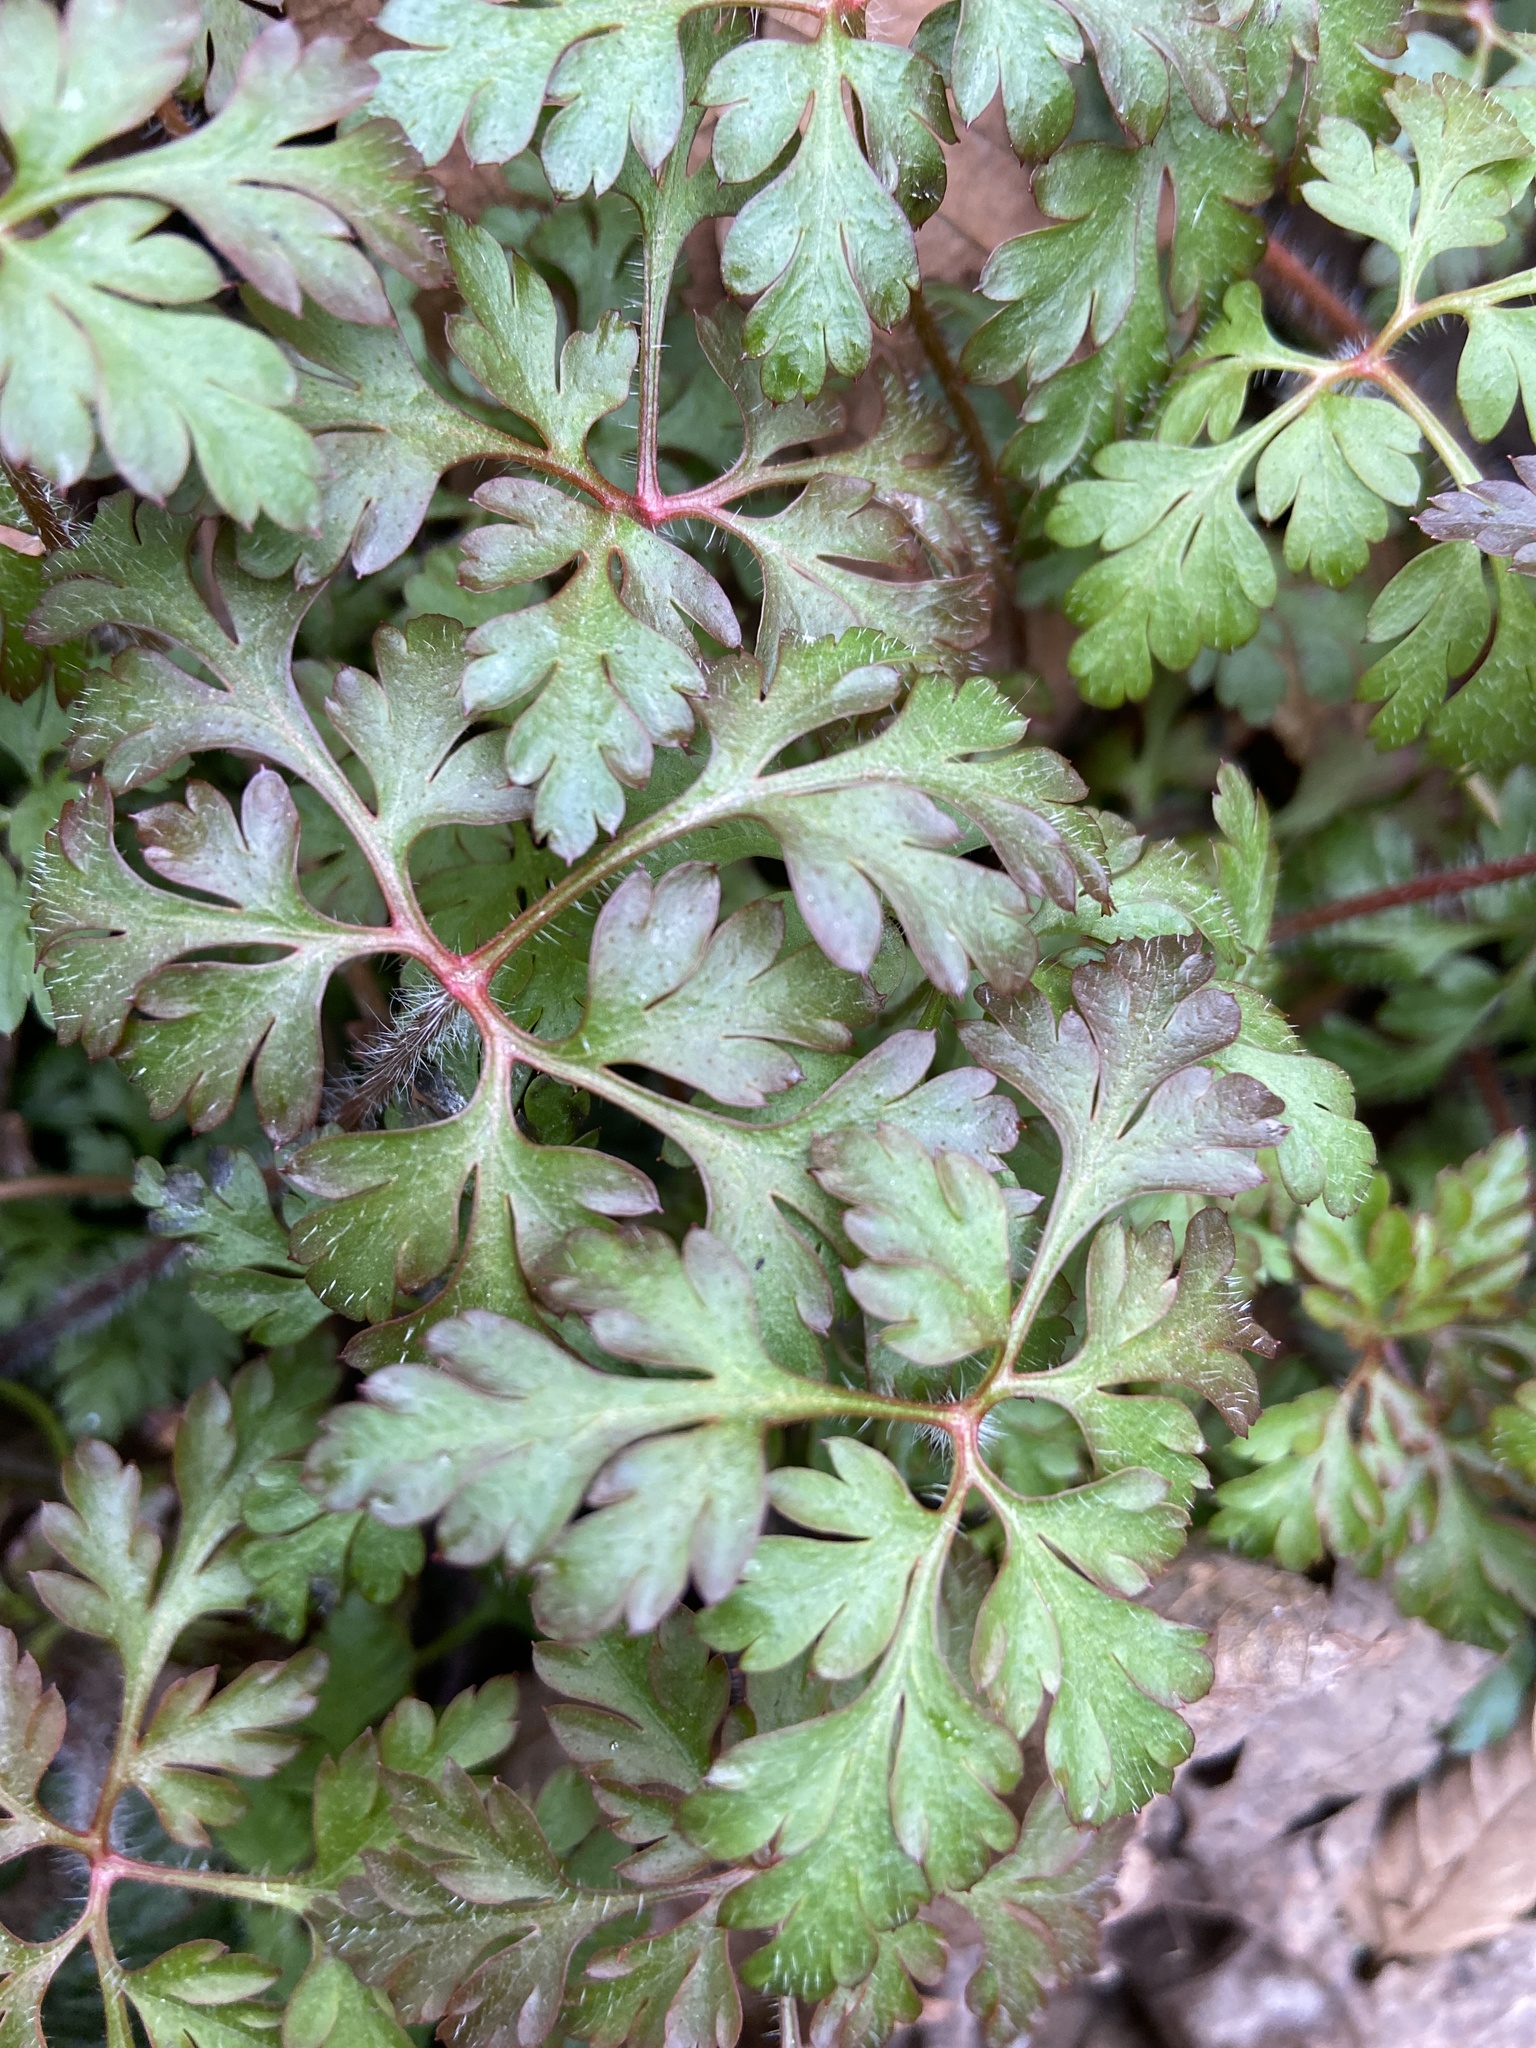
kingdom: Plantae
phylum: Tracheophyta
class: Magnoliopsida
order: Geraniales
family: Geraniaceae
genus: Geranium
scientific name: Geranium robertianum
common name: Herb-robert
